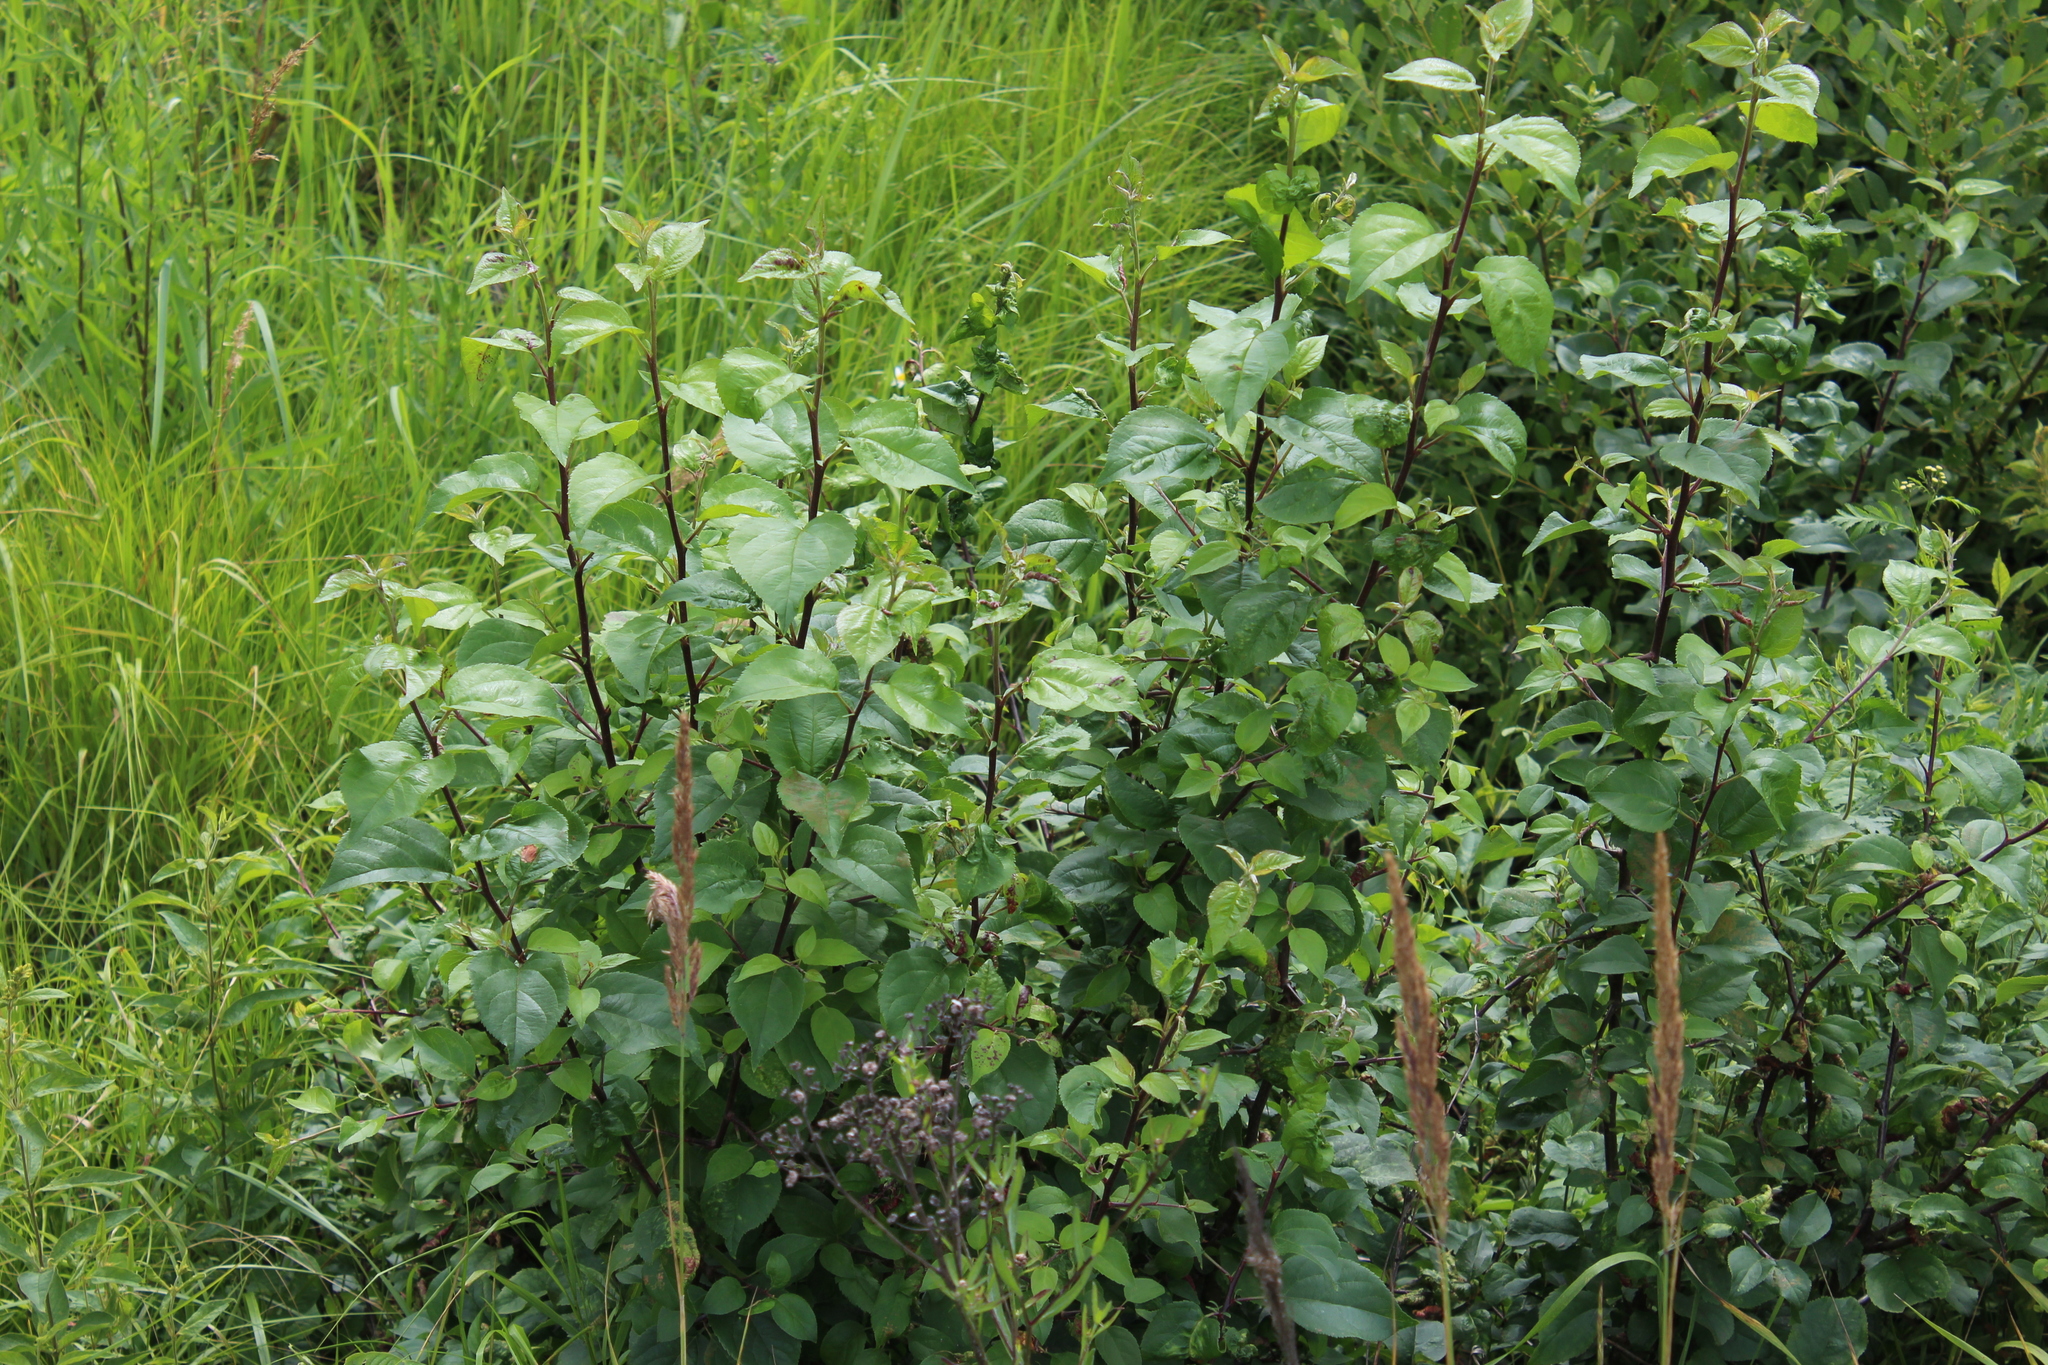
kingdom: Plantae
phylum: Tracheophyta
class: Magnoliopsida
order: Rosales
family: Rosaceae
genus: Malus
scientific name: Malus domestica
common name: Apple
